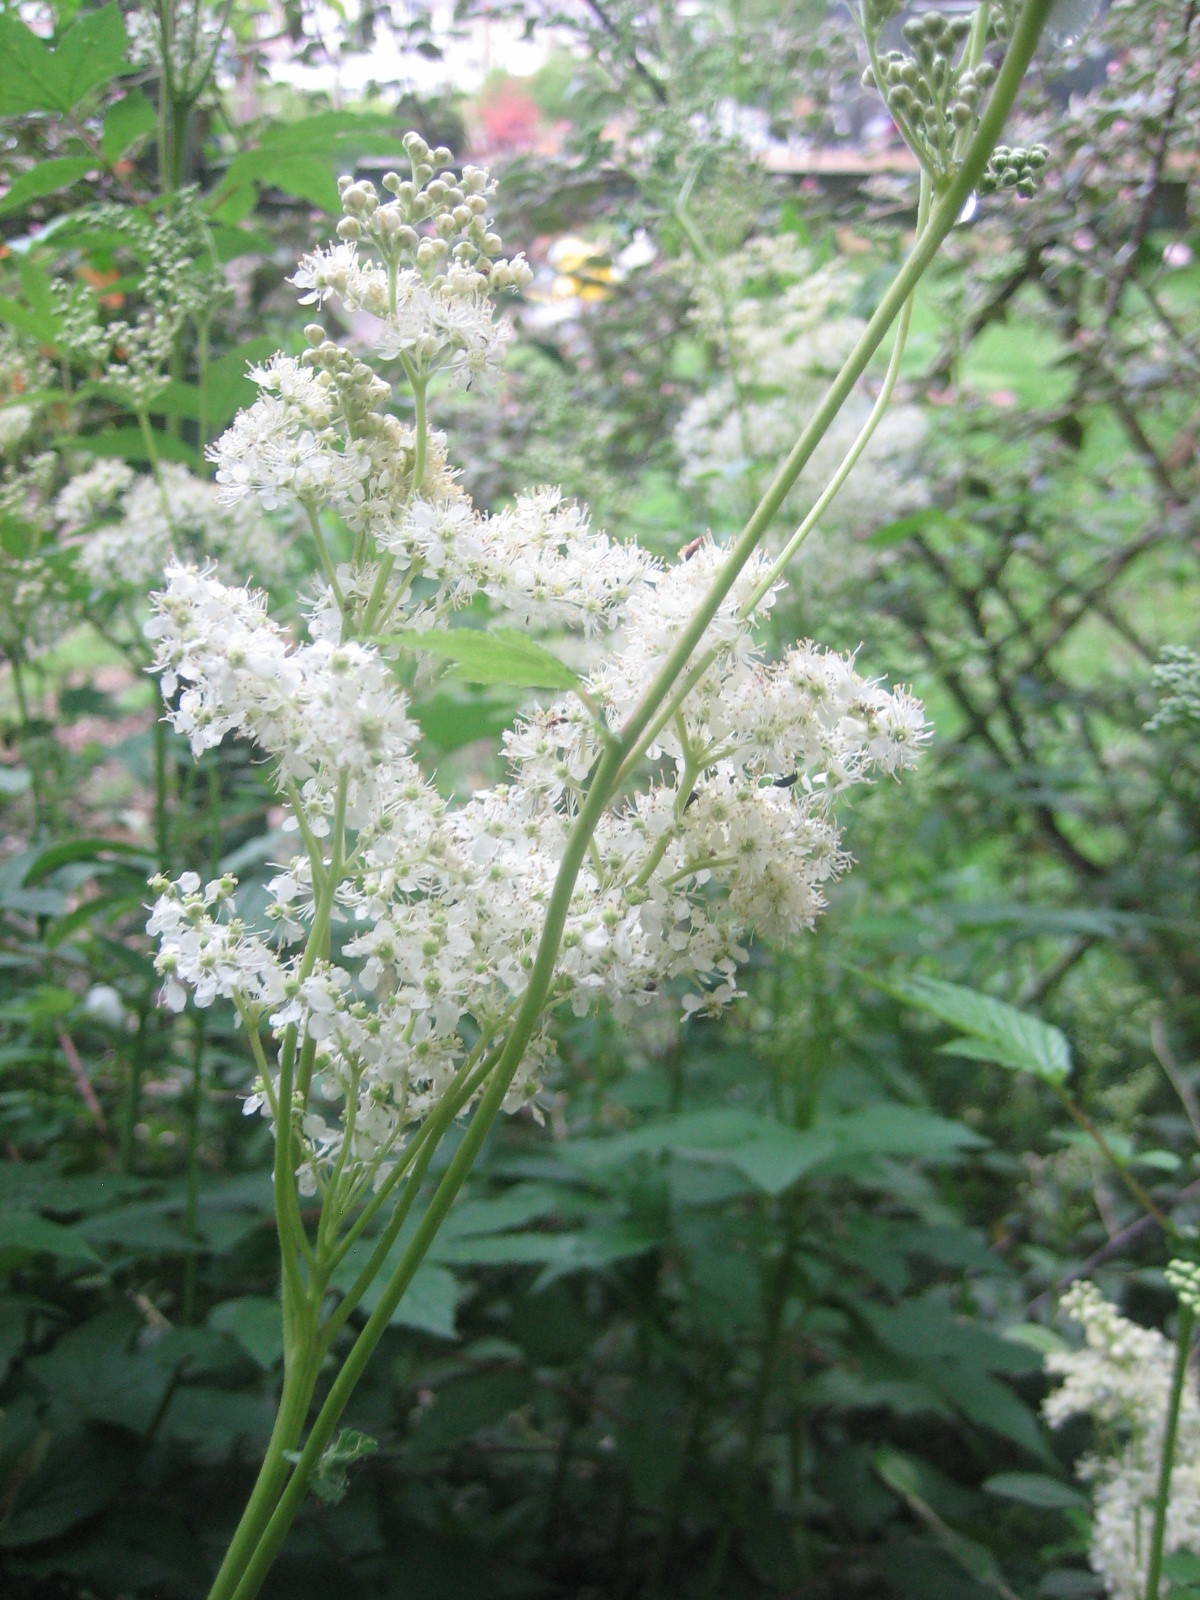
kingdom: Plantae
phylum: Tracheophyta
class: Magnoliopsida
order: Rosales
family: Rosaceae
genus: Filipendula
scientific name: Filipendula ulmaria
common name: Meadowsweet
